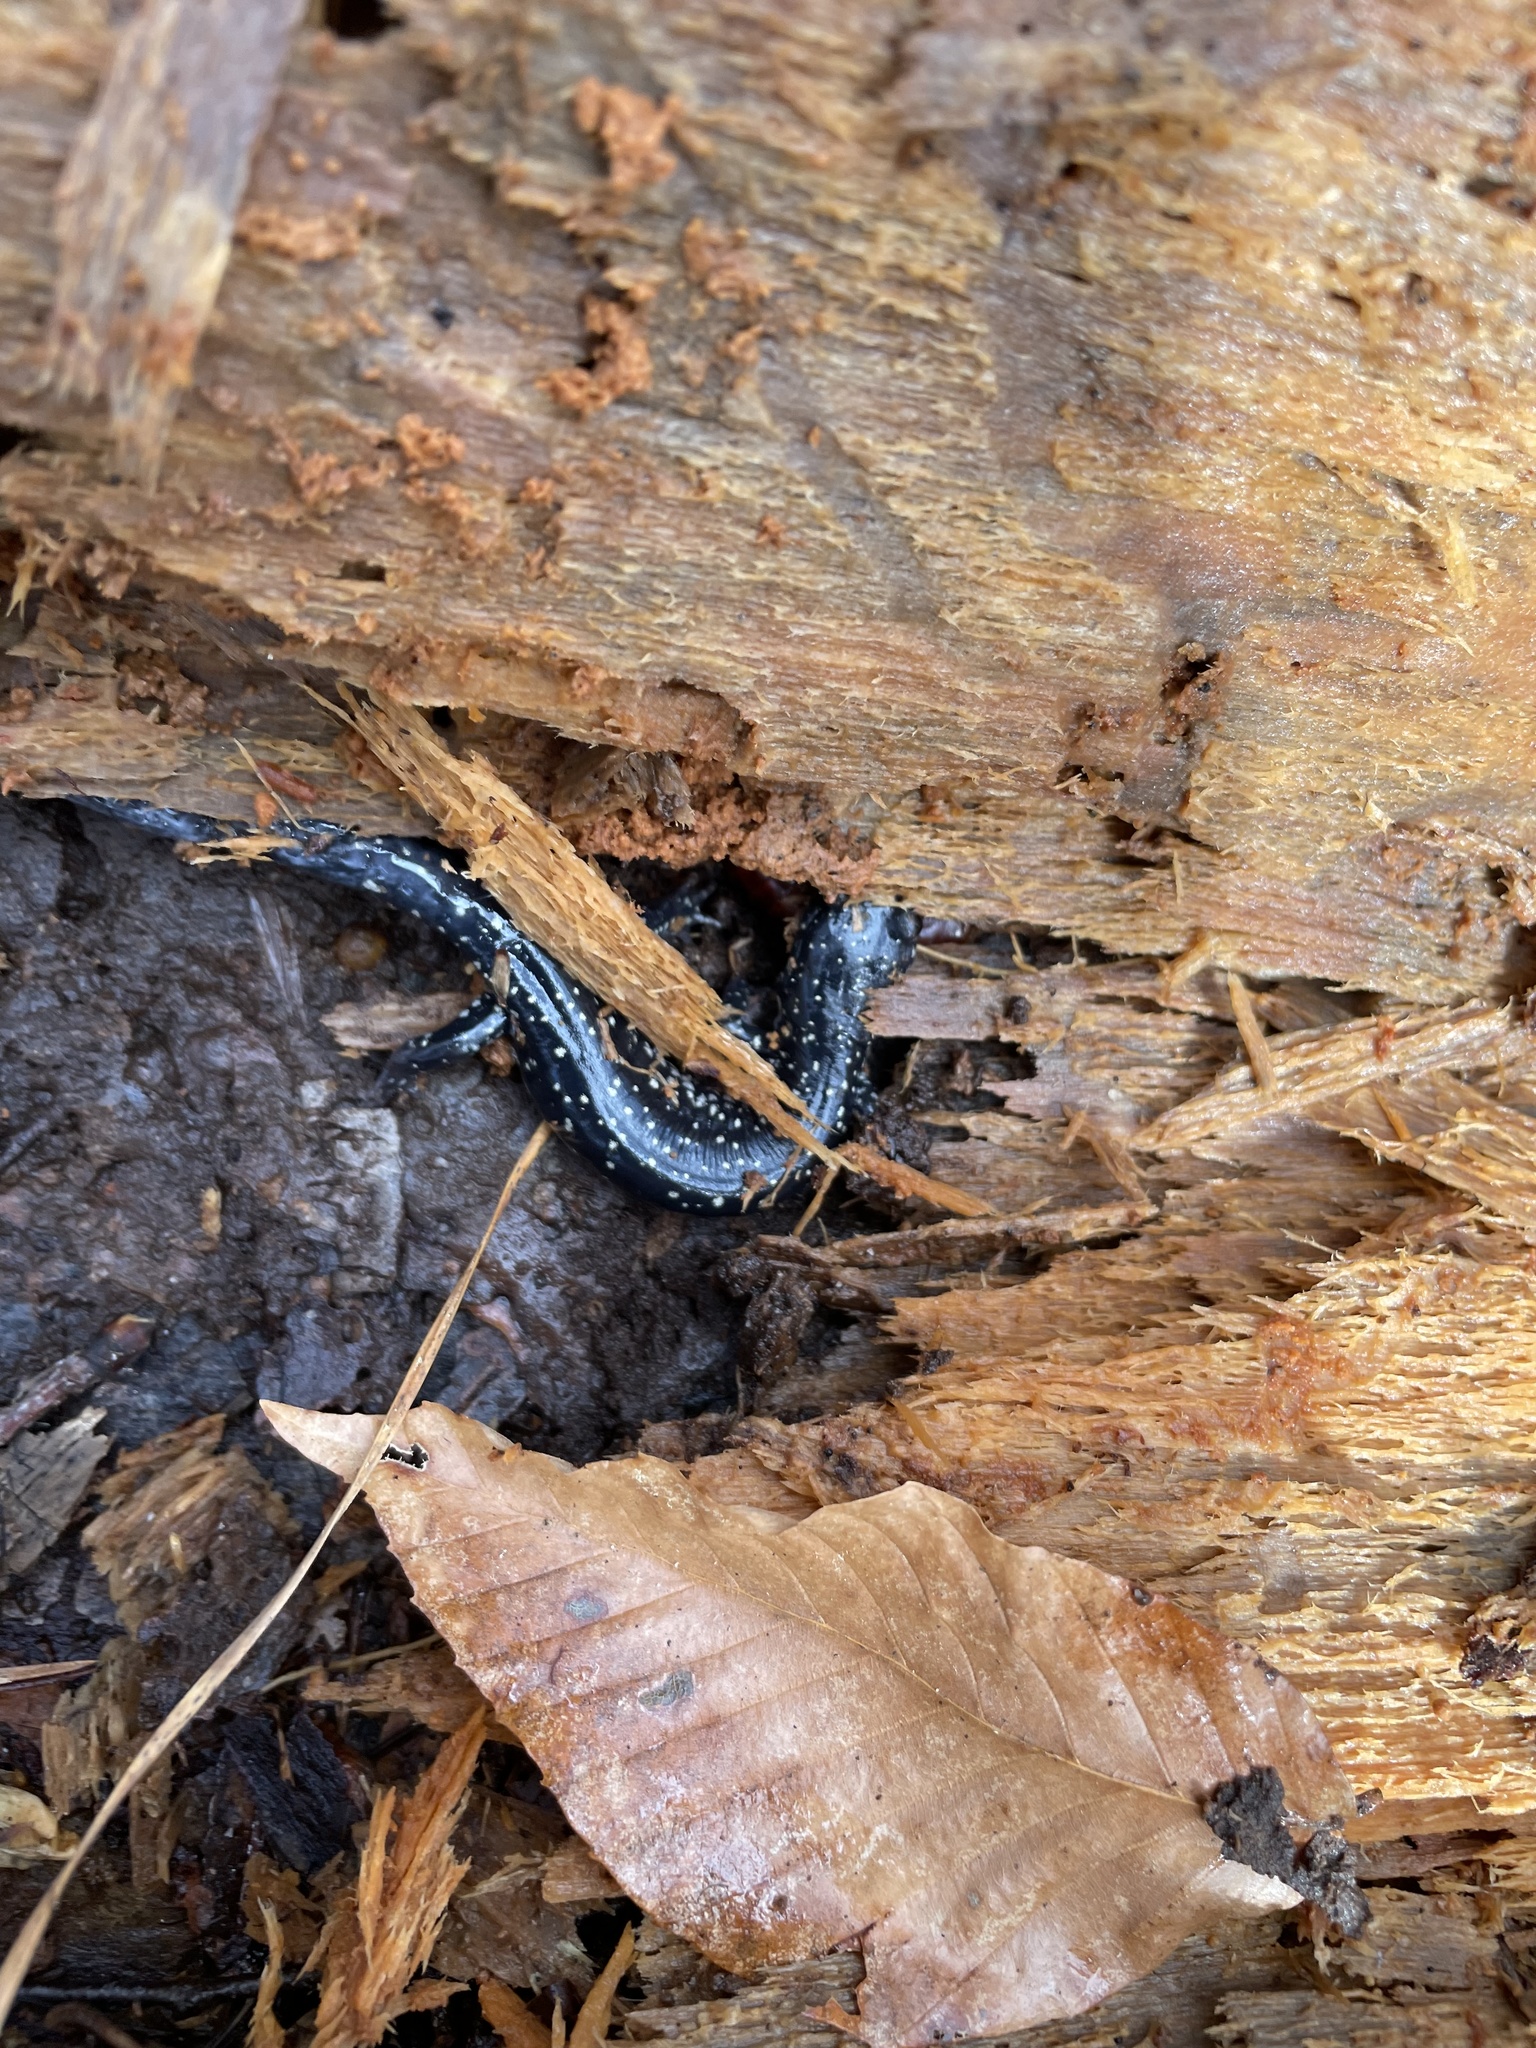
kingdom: Animalia
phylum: Chordata
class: Amphibia
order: Caudata
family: Plethodontidae
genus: Plethodon
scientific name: Plethodon glutinosus
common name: Northern slimy salamander
